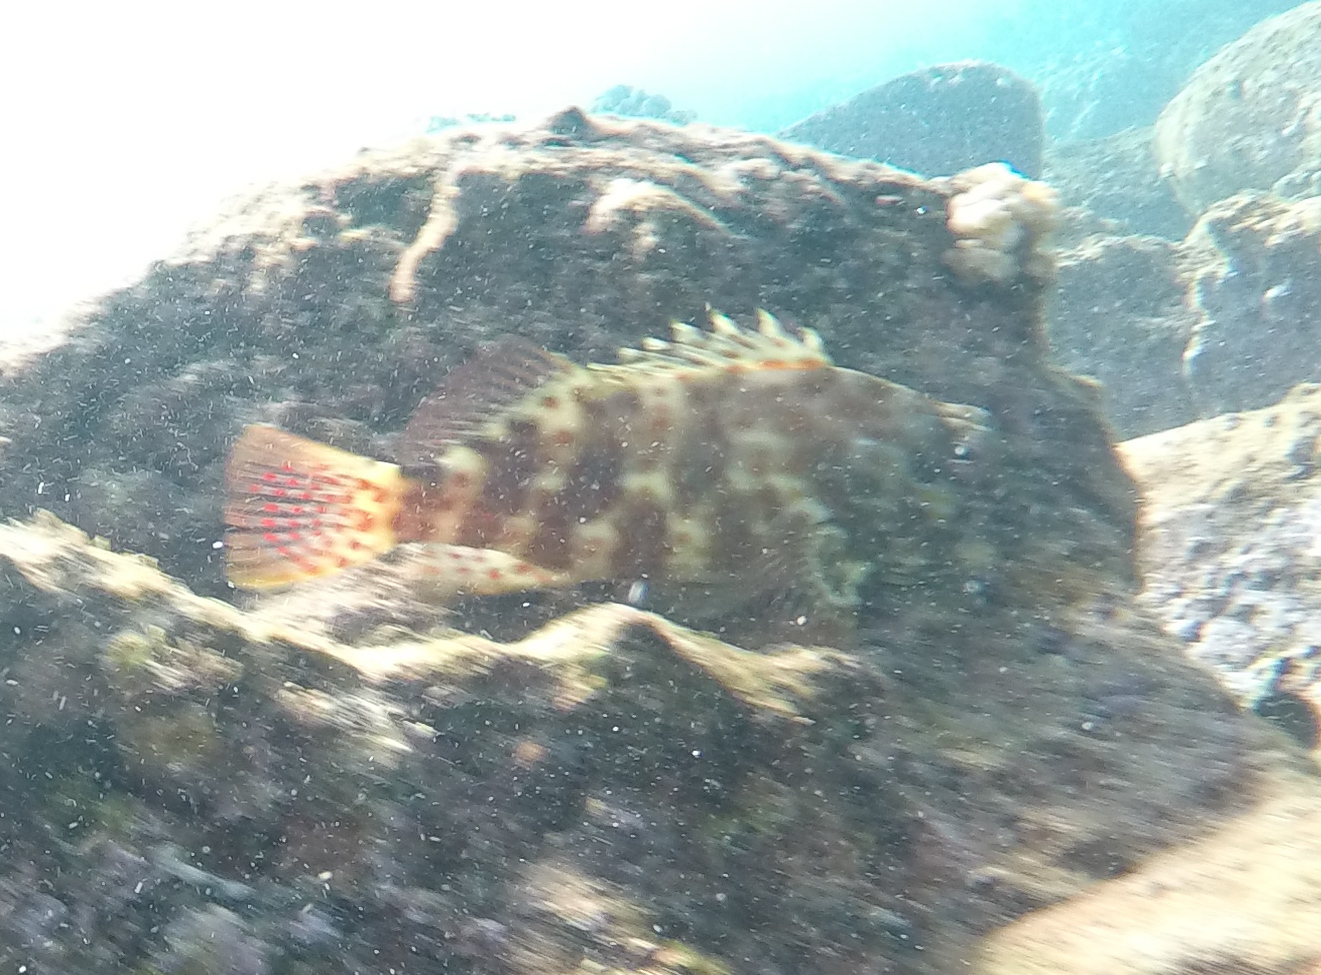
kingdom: Animalia
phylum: Chordata
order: Perciformes
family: Cirrhitidae
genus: Cirrhitus
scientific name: Cirrhitus pinnulatus
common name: Stocky hawkfish
